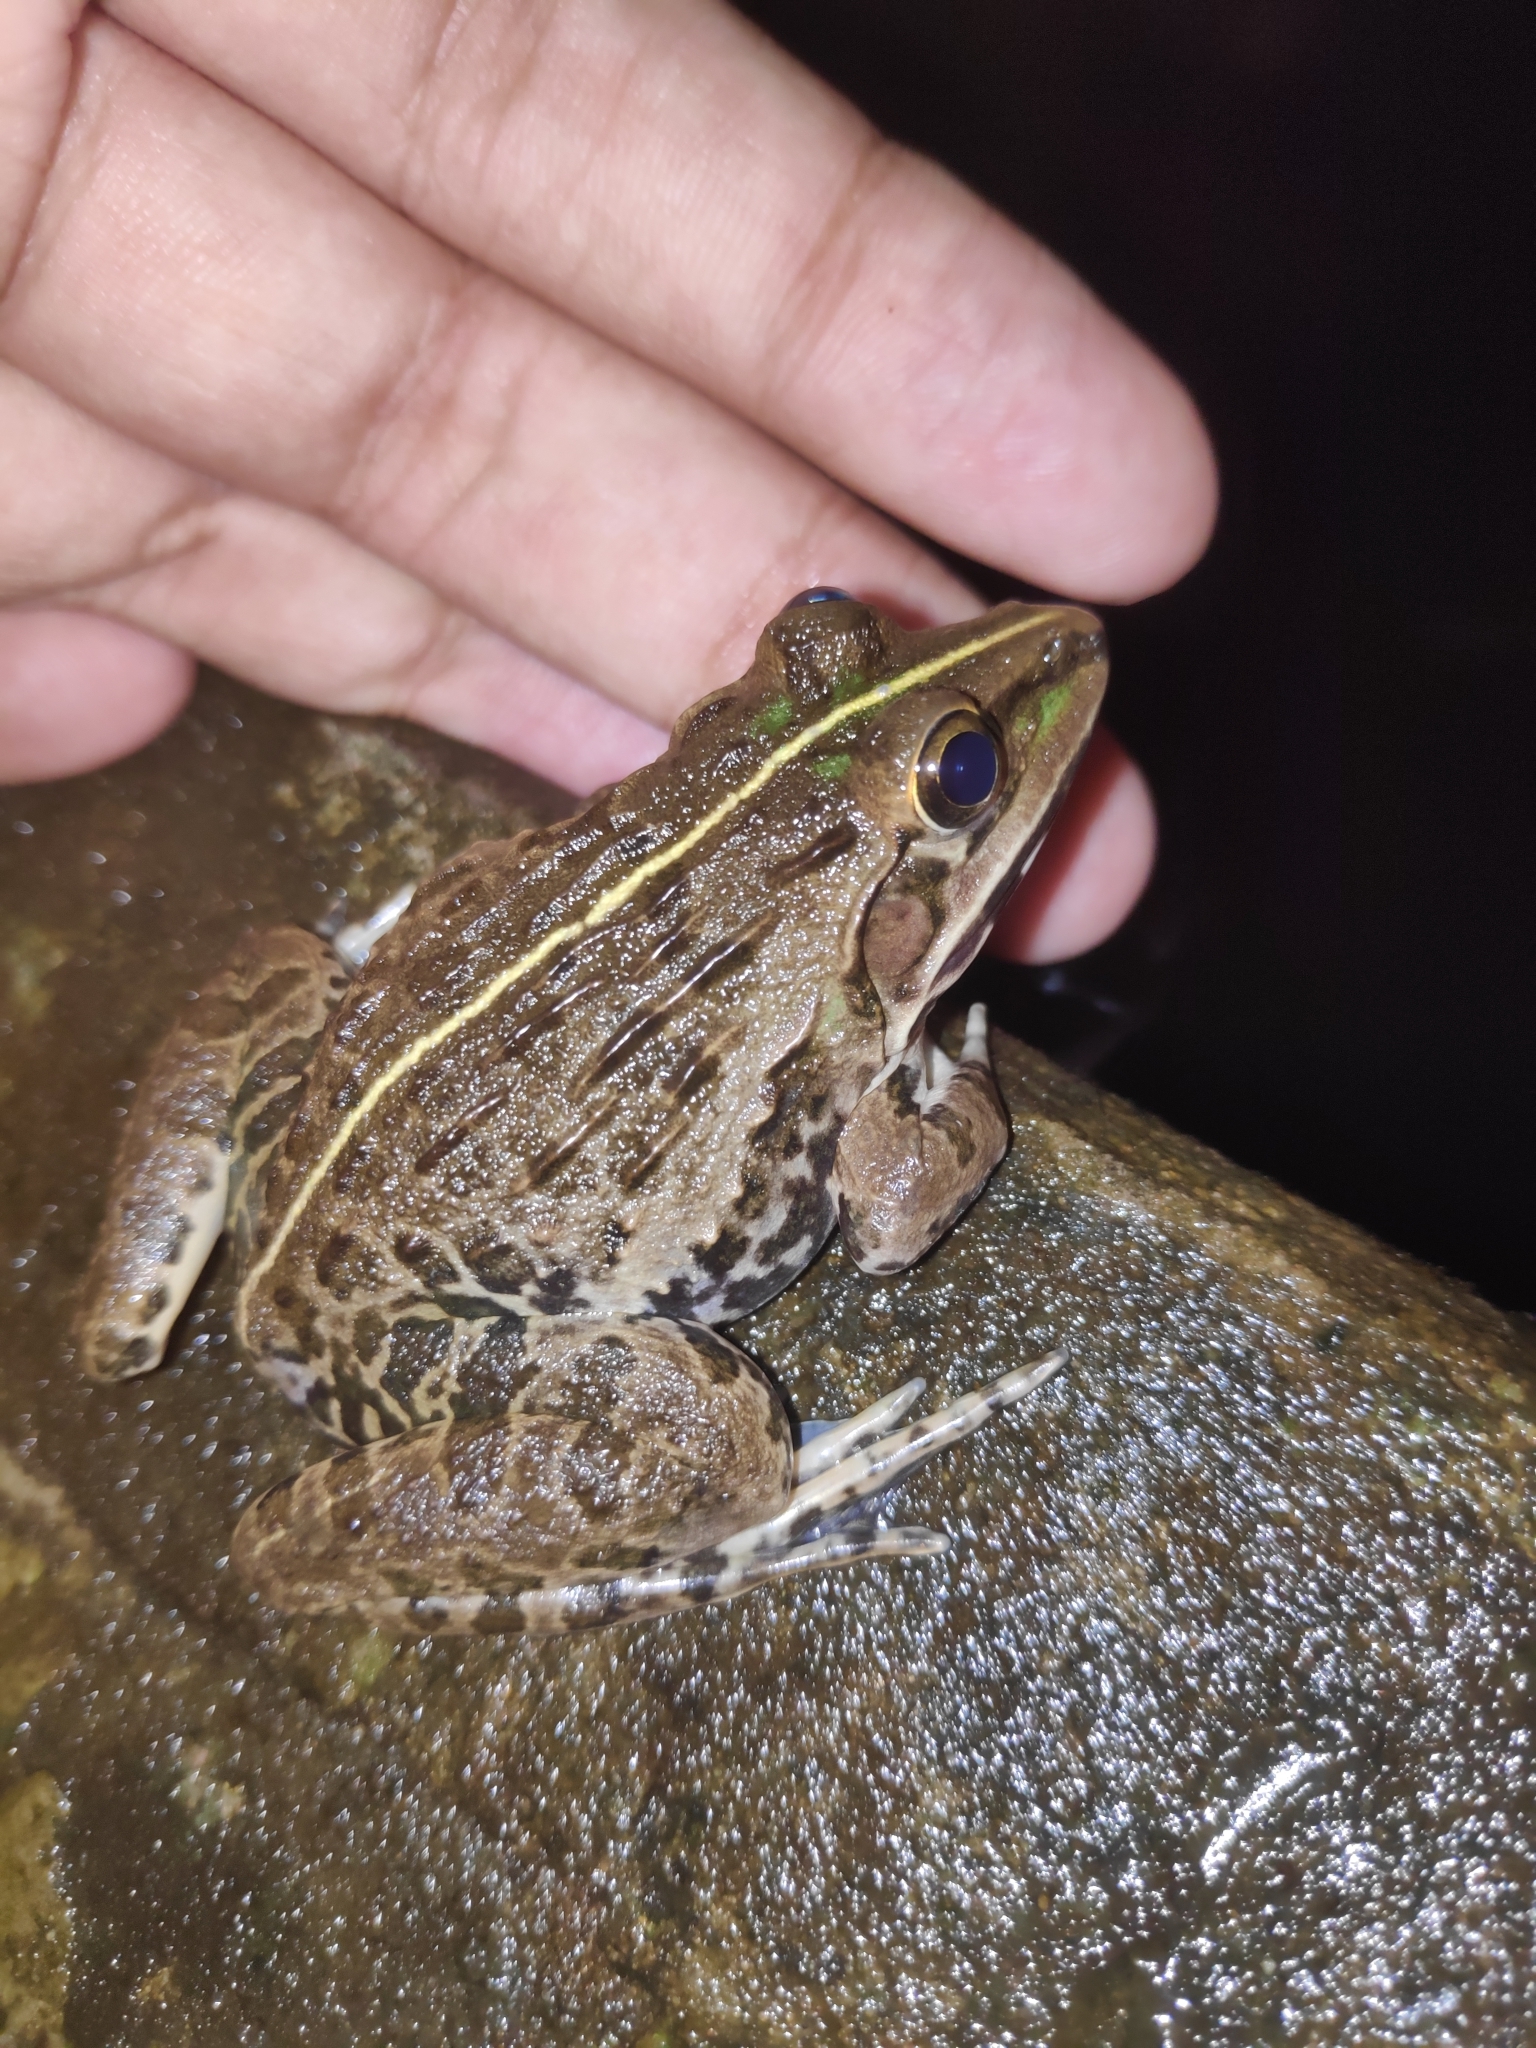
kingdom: Animalia
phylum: Chordata
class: Amphibia
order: Anura
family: Dicroglossidae
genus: Hoplobatrachus
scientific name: Hoplobatrachus tigerinus
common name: Indian bullfrog
